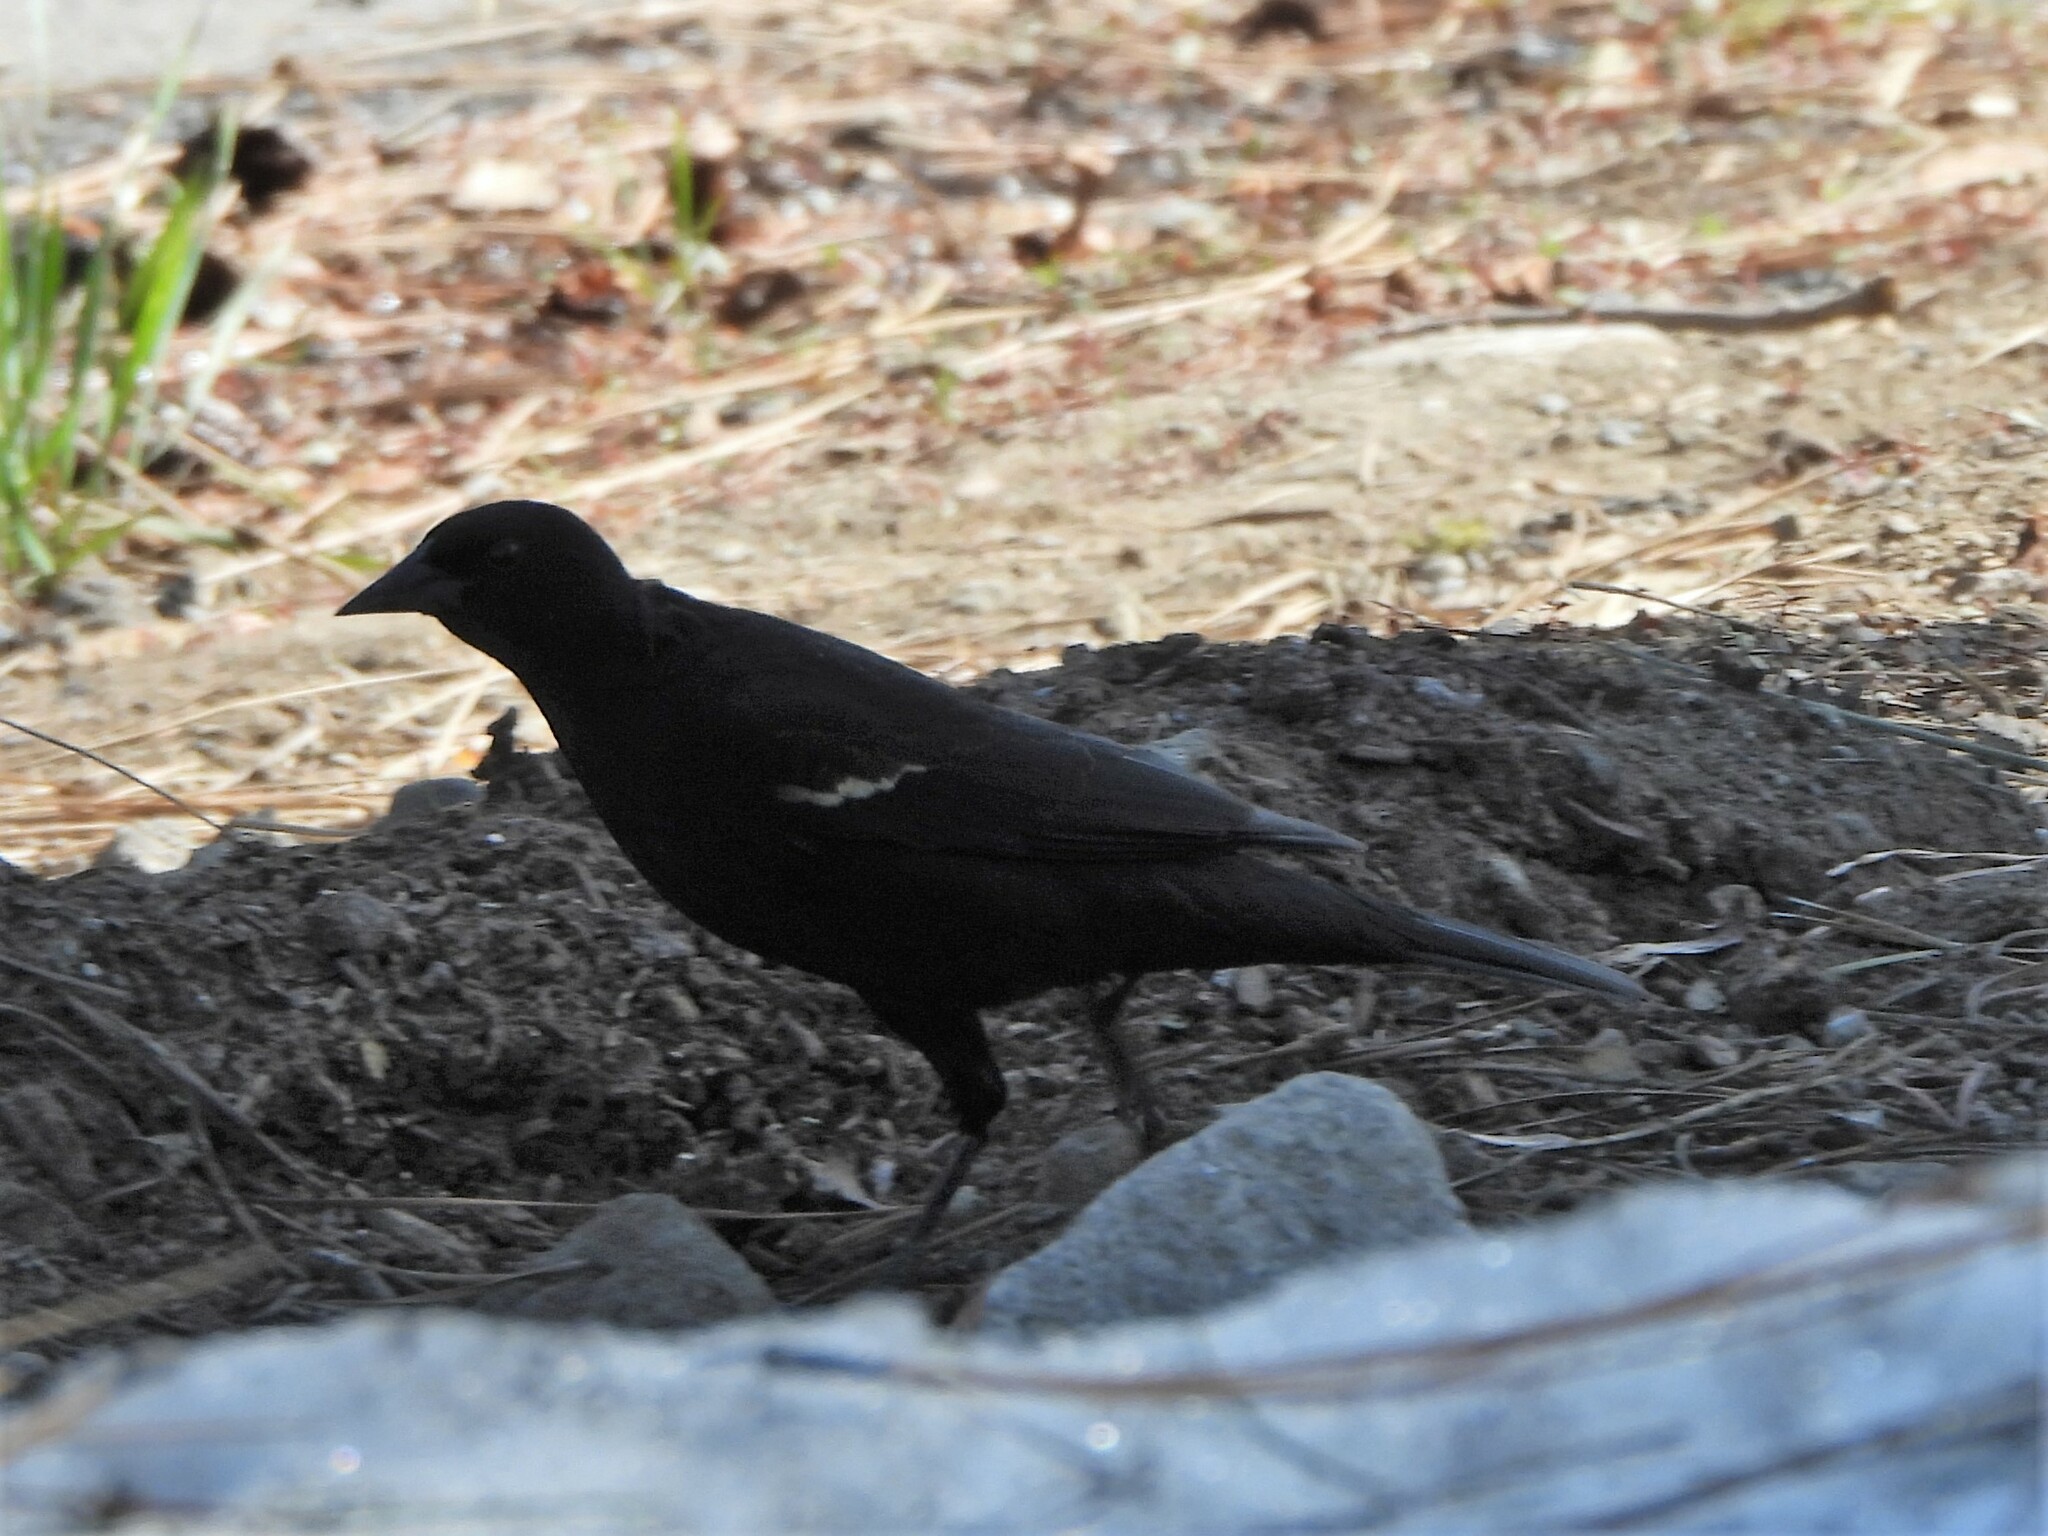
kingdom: Animalia
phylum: Chordata
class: Aves
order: Passeriformes
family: Icteridae
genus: Agelaius
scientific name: Agelaius phoeniceus
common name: Red-winged blackbird
